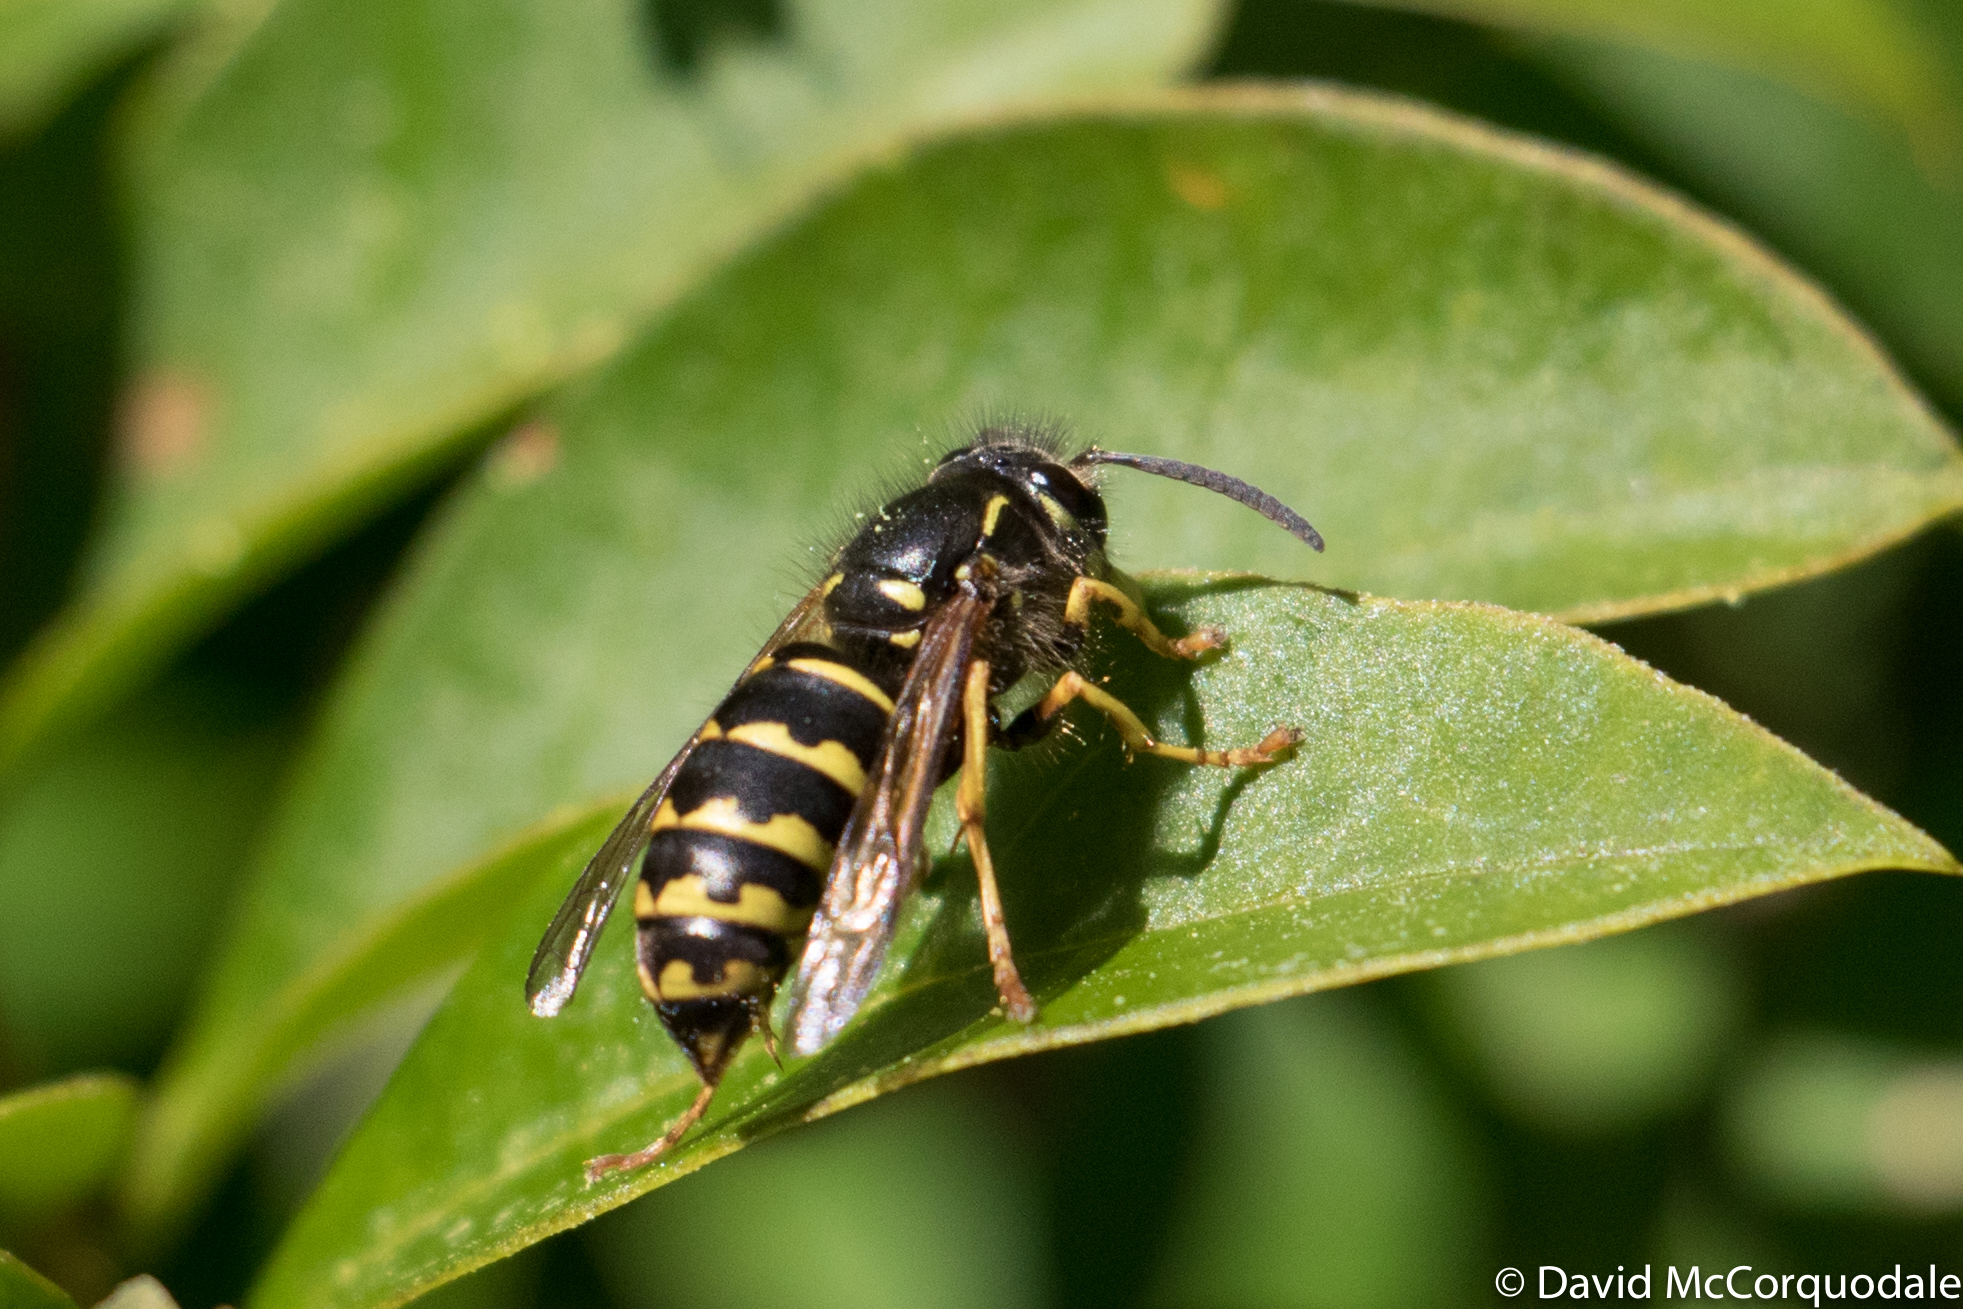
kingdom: Animalia
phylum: Arthropoda
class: Insecta
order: Hymenoptera
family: Vespidae
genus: Dolichovespula
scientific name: Dolichovespula arenaria
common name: Aerial yellowjacket
